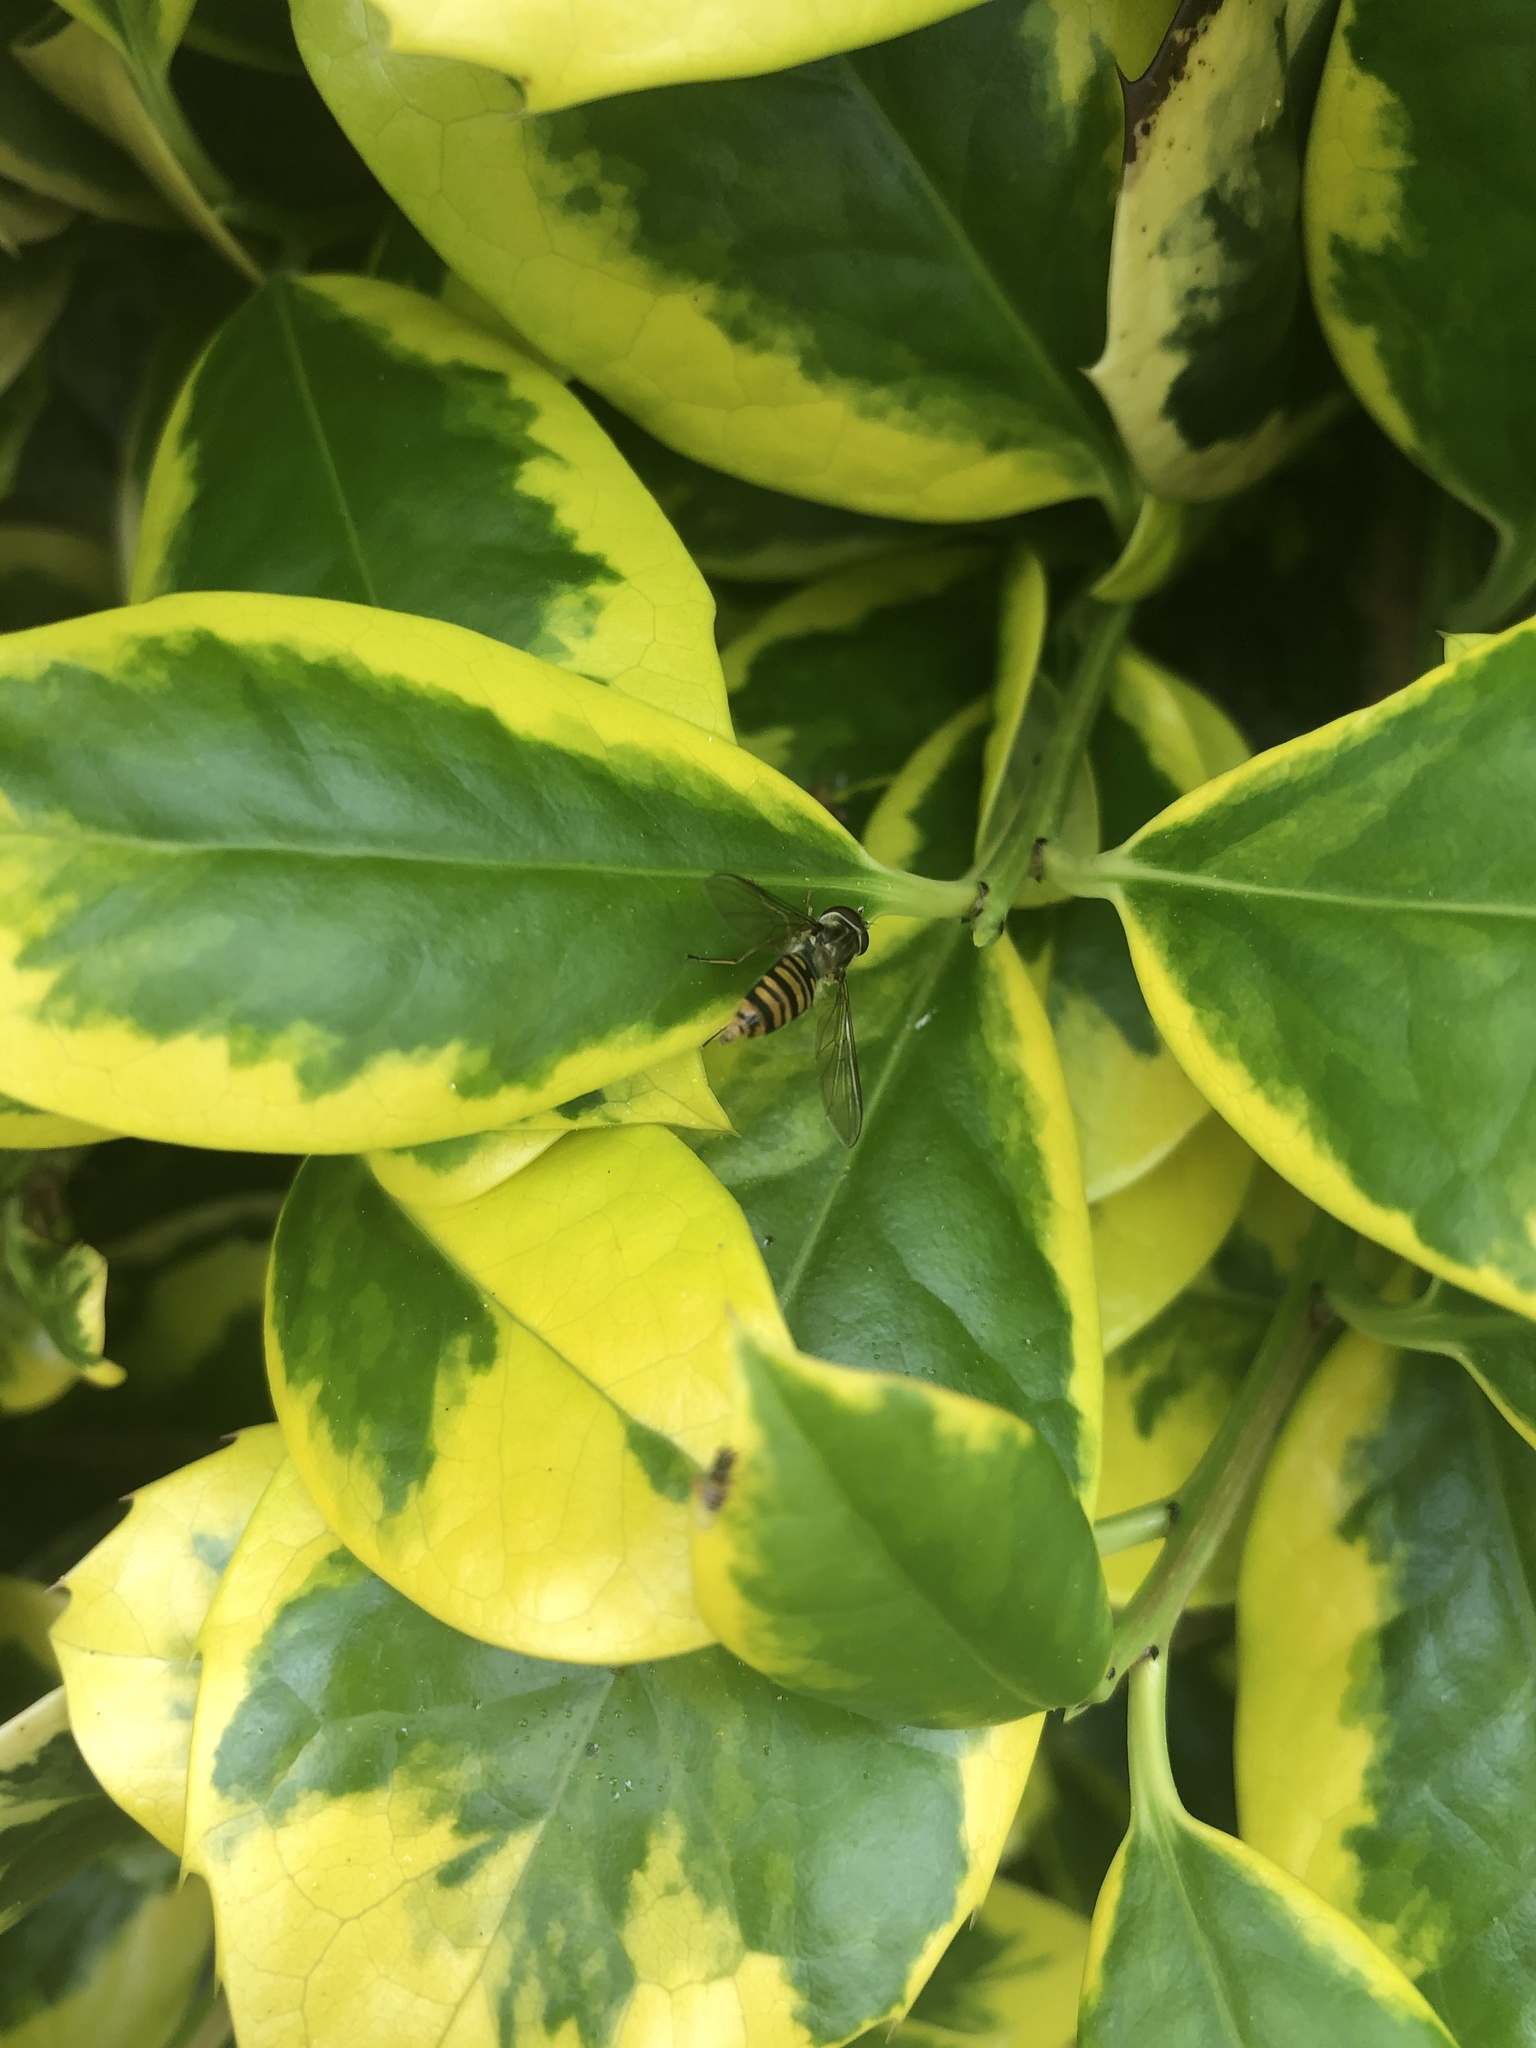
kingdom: Animalia
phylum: Arthropoda
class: Insecta
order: Diptera
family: Syrphidae
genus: Episyrphus
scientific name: Episyrphus balteatus
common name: Marmalade hoverfly
